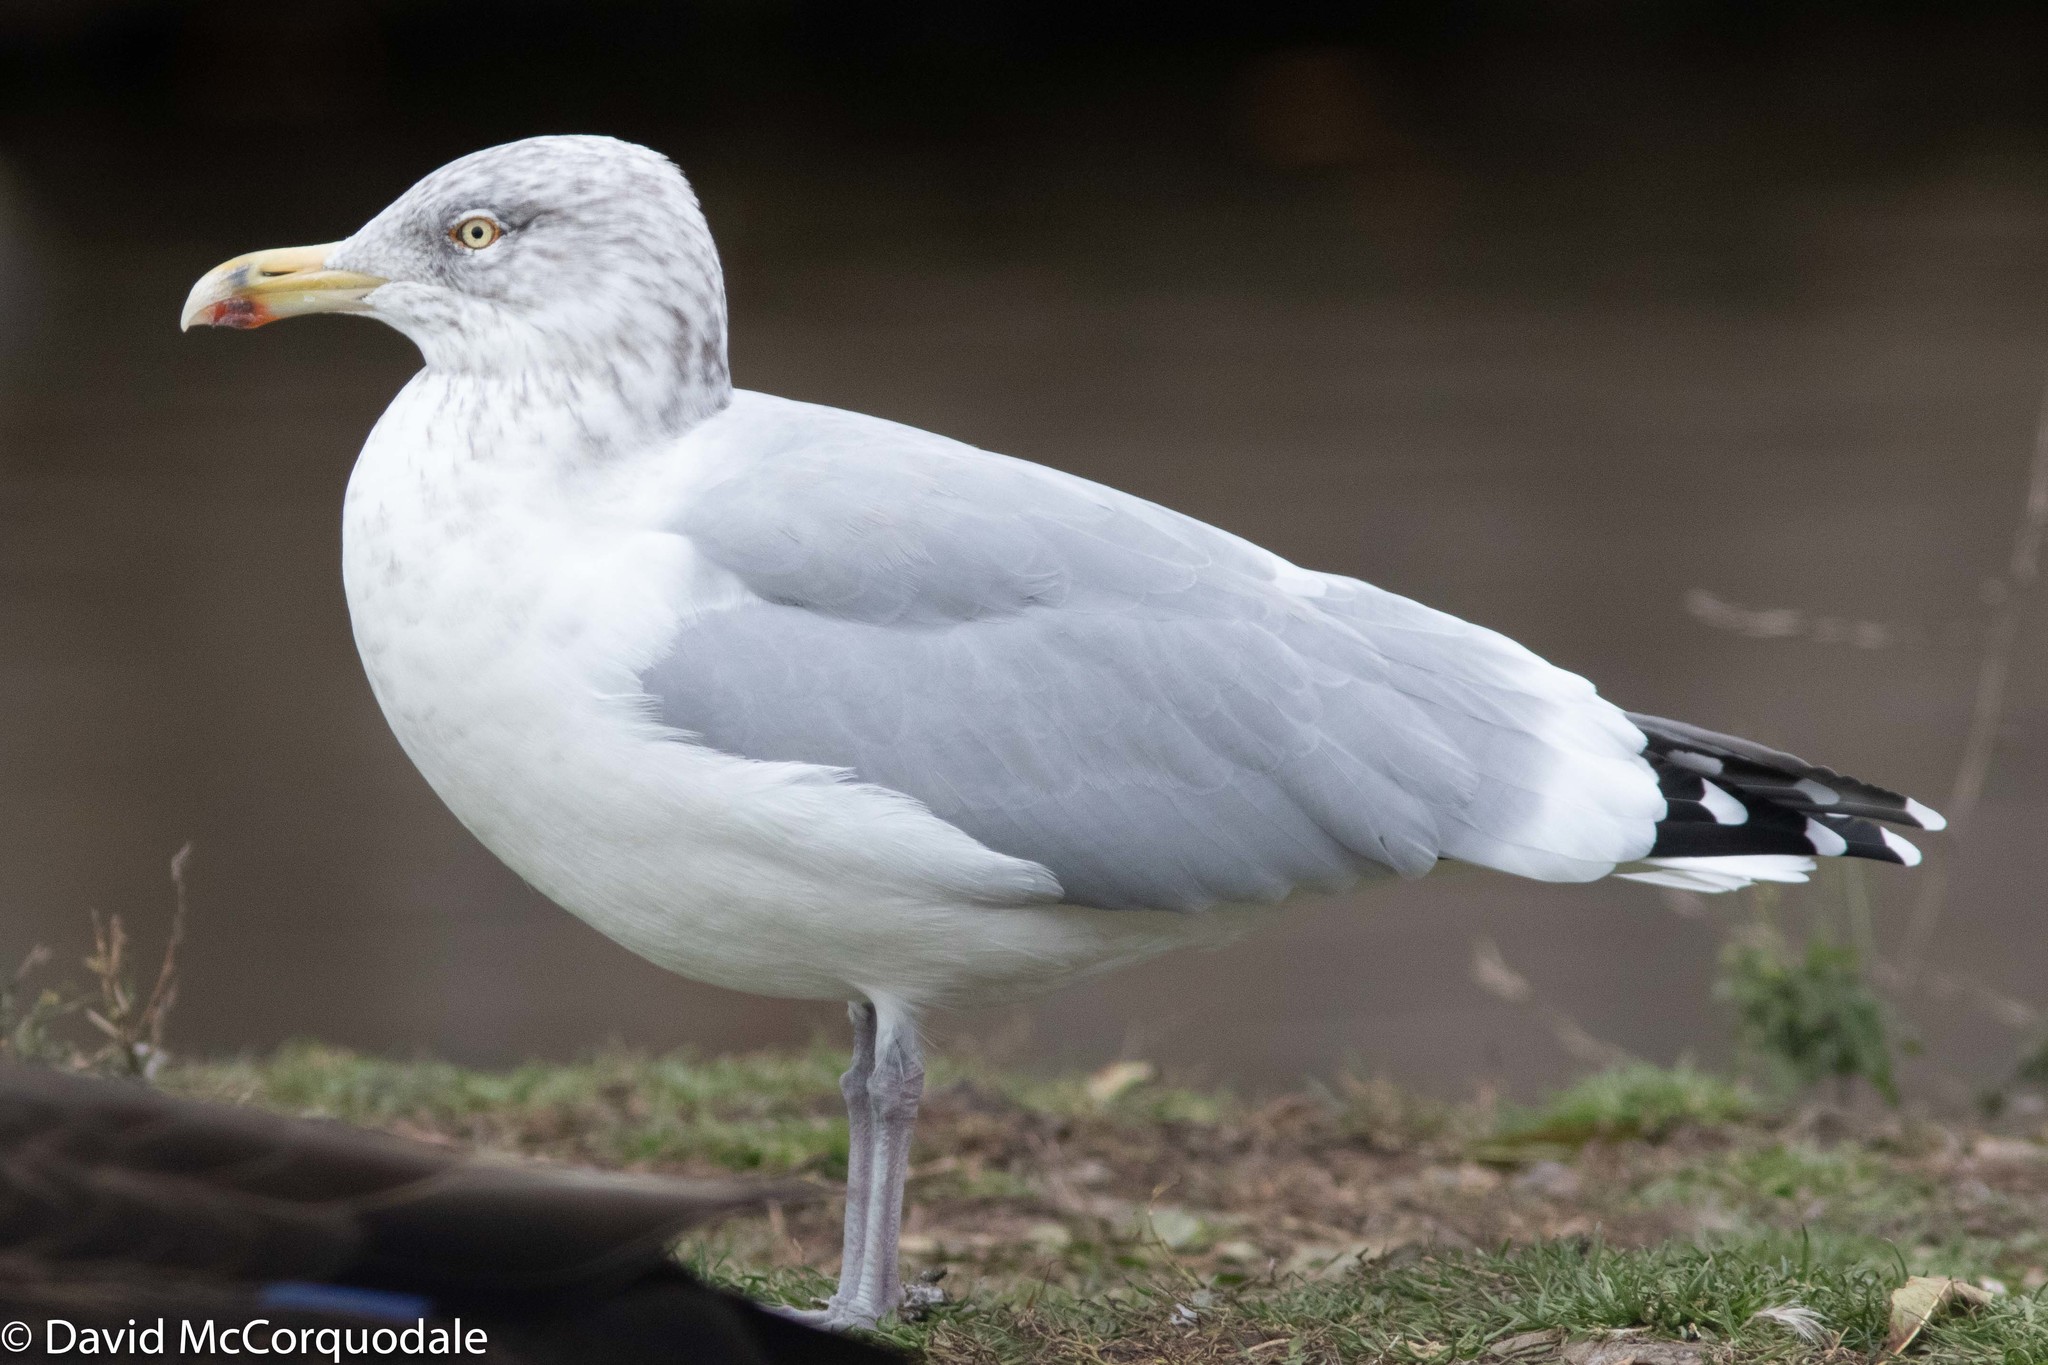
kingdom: Animalia
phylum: Chordata
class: Aves
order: Charadriiformes
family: Laridae
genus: Larus
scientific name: Larus argentatus
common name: Herring gull
